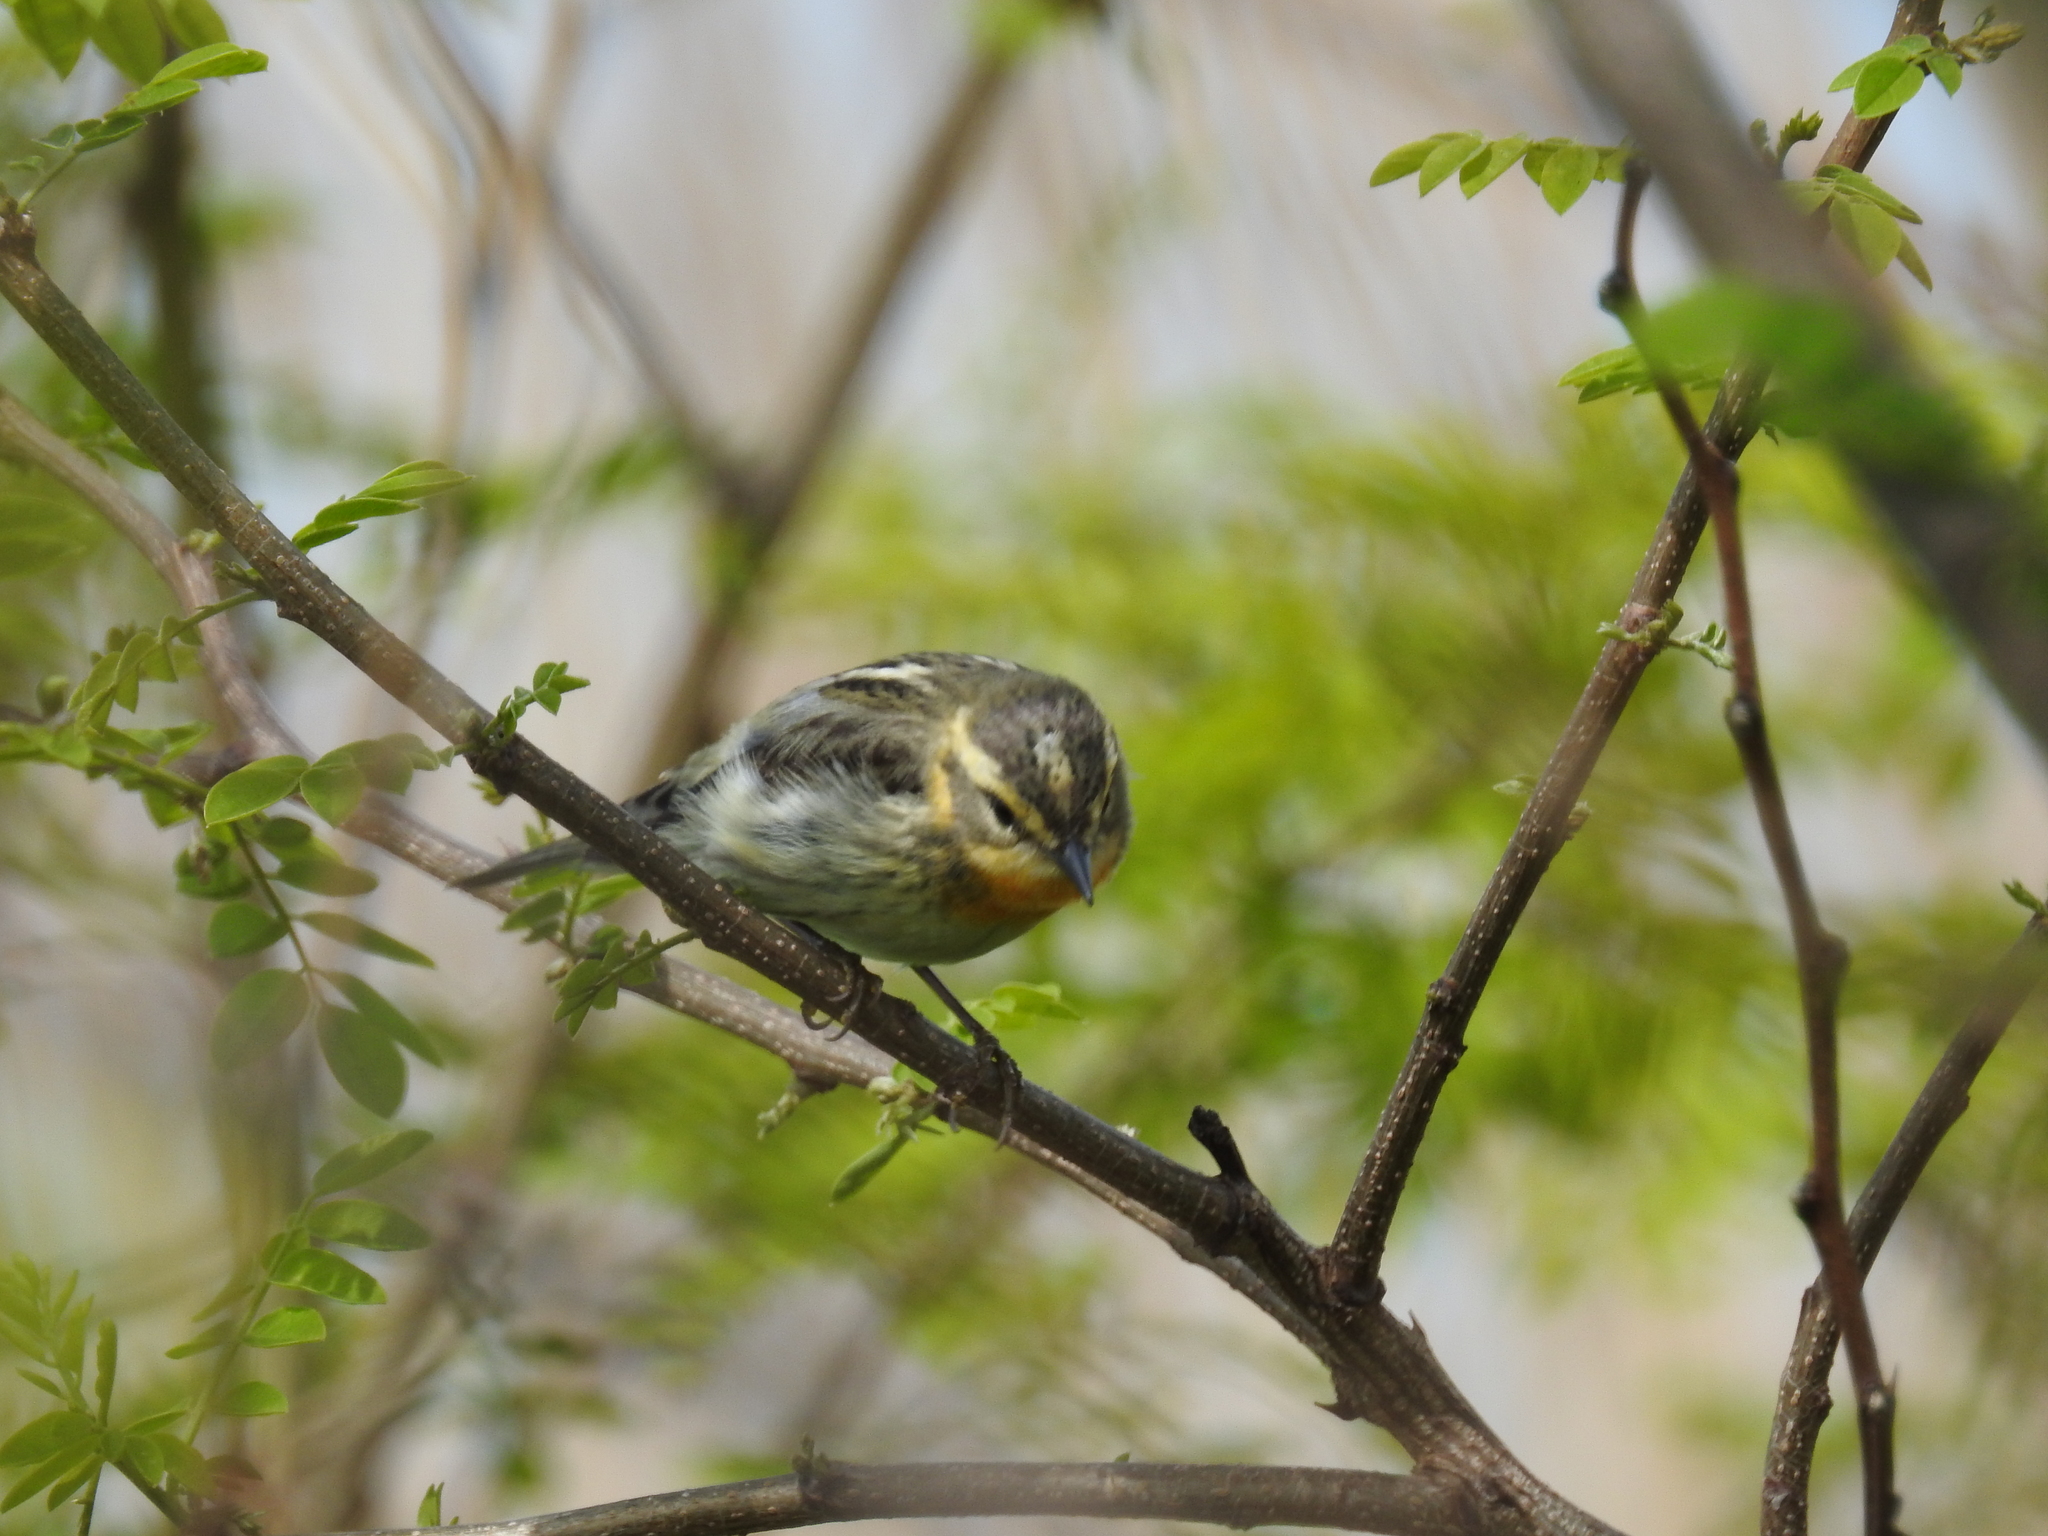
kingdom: Animalia
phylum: Chordata
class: Aves
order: Passeriformes
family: Parulidae
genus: Setophaga
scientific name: Setophaga fusca
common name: Blackburnian warbler
